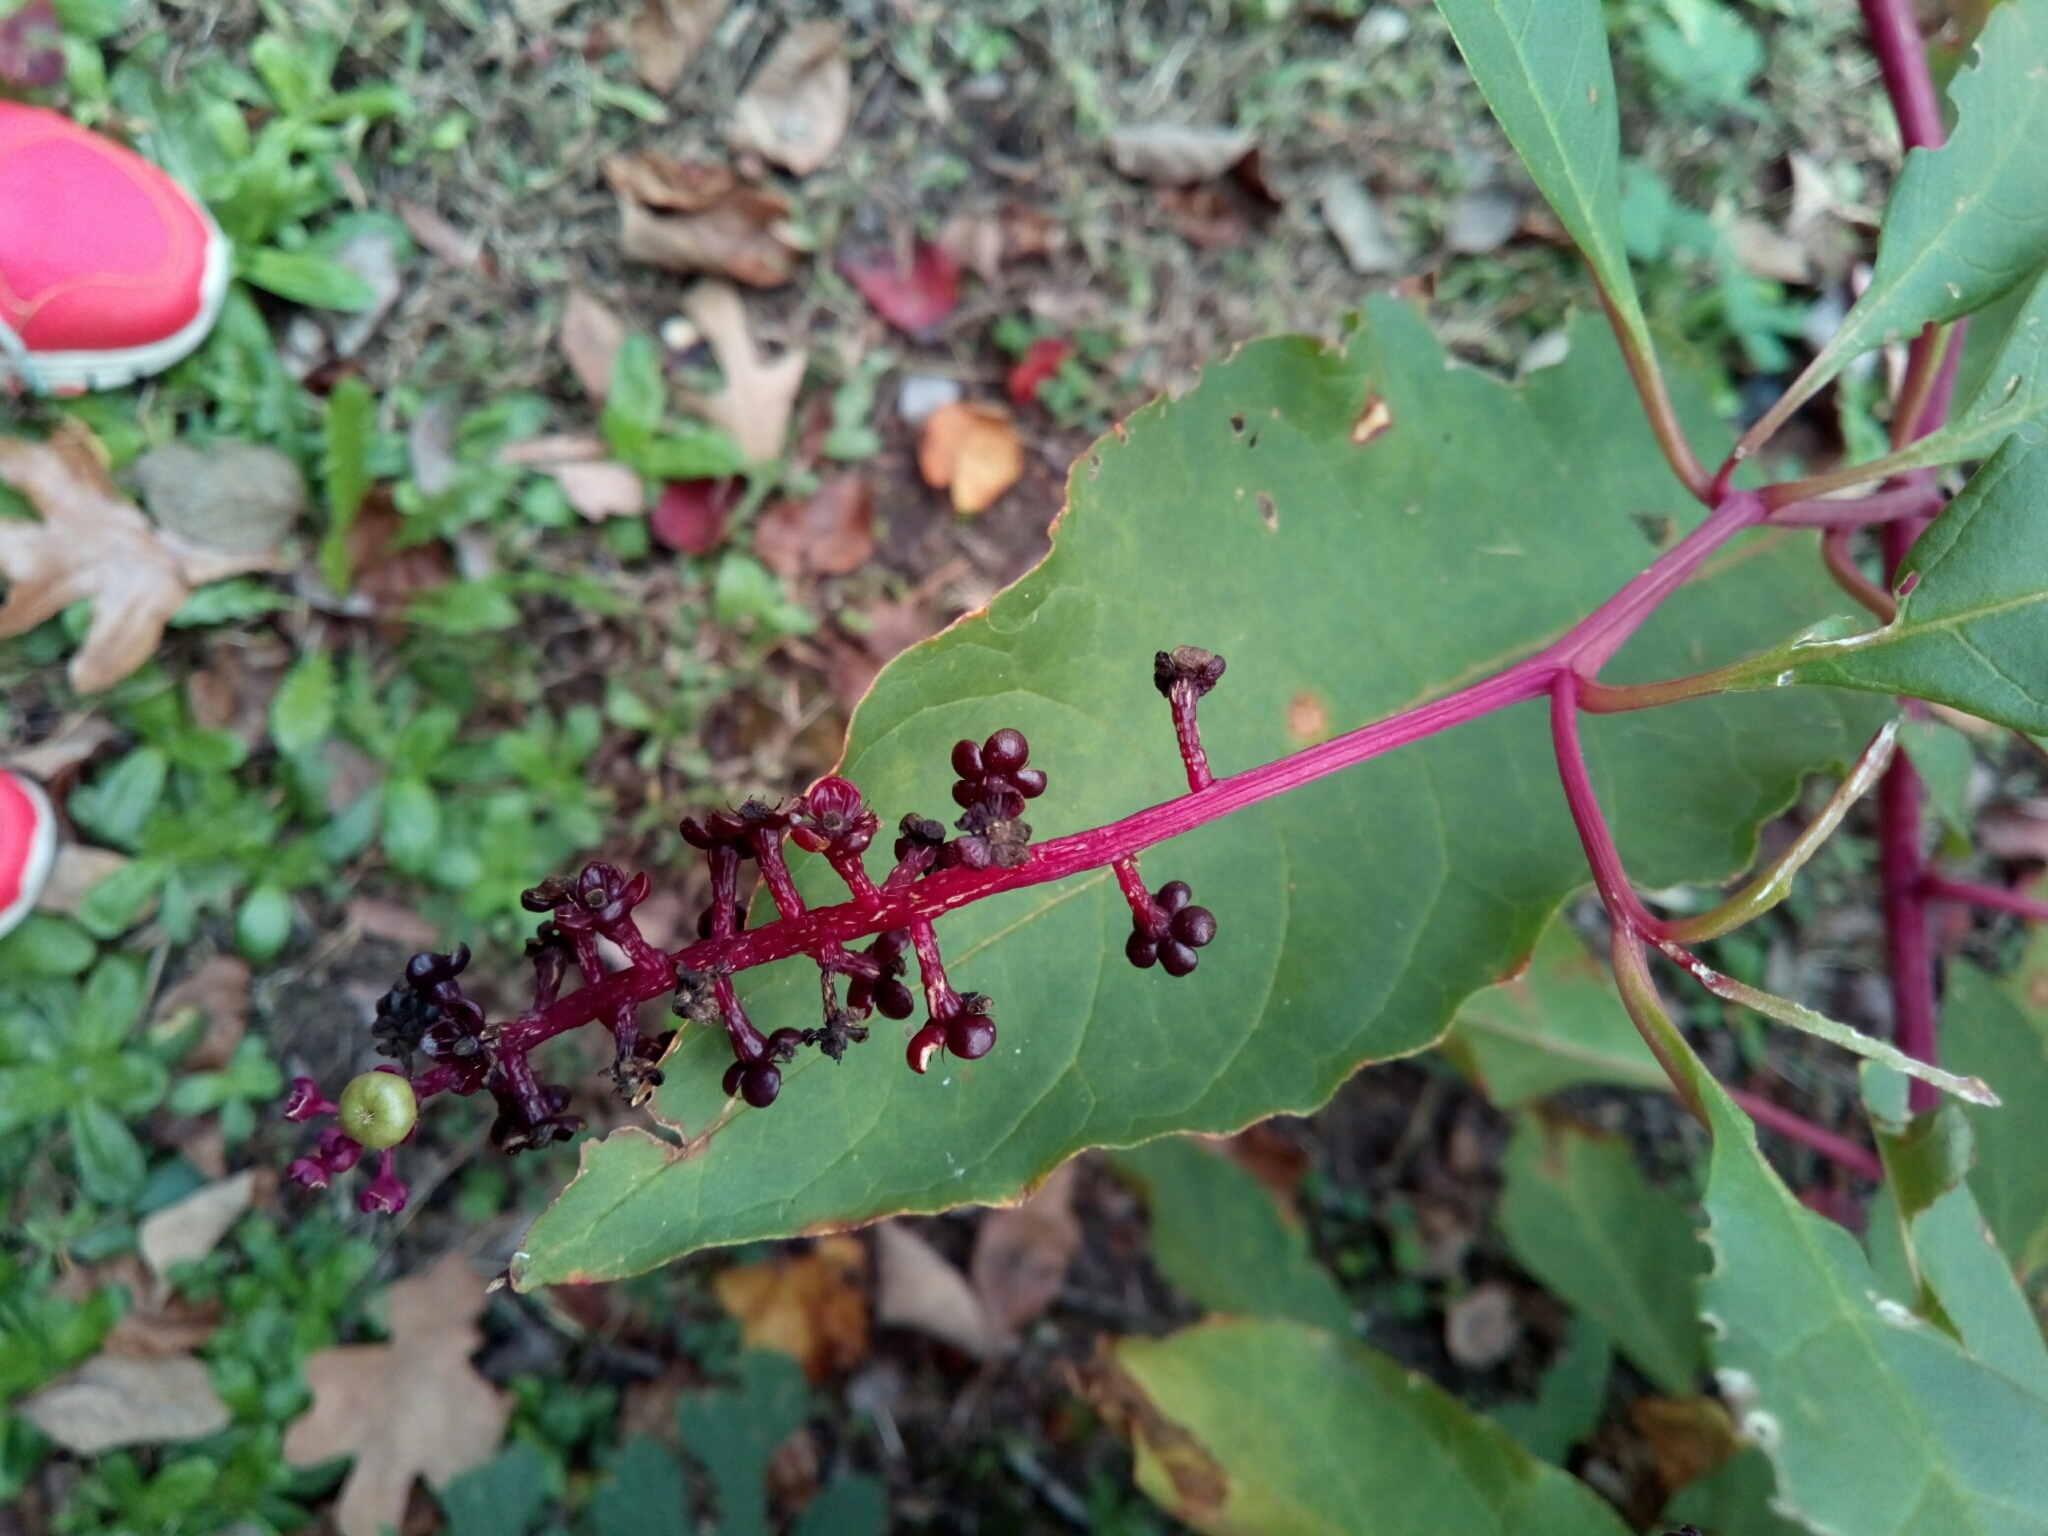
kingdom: Plantae
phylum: Tracheophyta
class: Magnoliopsida
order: Caryophyllales
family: Phytolaccaceae
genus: Phytolacca
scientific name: Phytolacca americana
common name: American pokeweed
